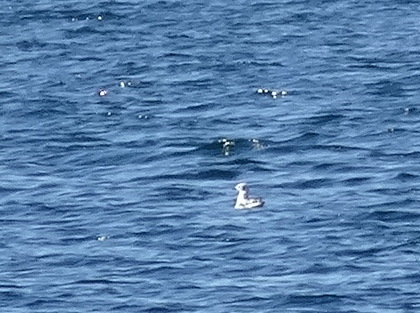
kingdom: Animalia
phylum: Chordata
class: Aves
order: Charadriiformes
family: Laridae
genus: Chroicocephalus
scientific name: Chroicocephalus philadelphia
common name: Bonaparte's gull
